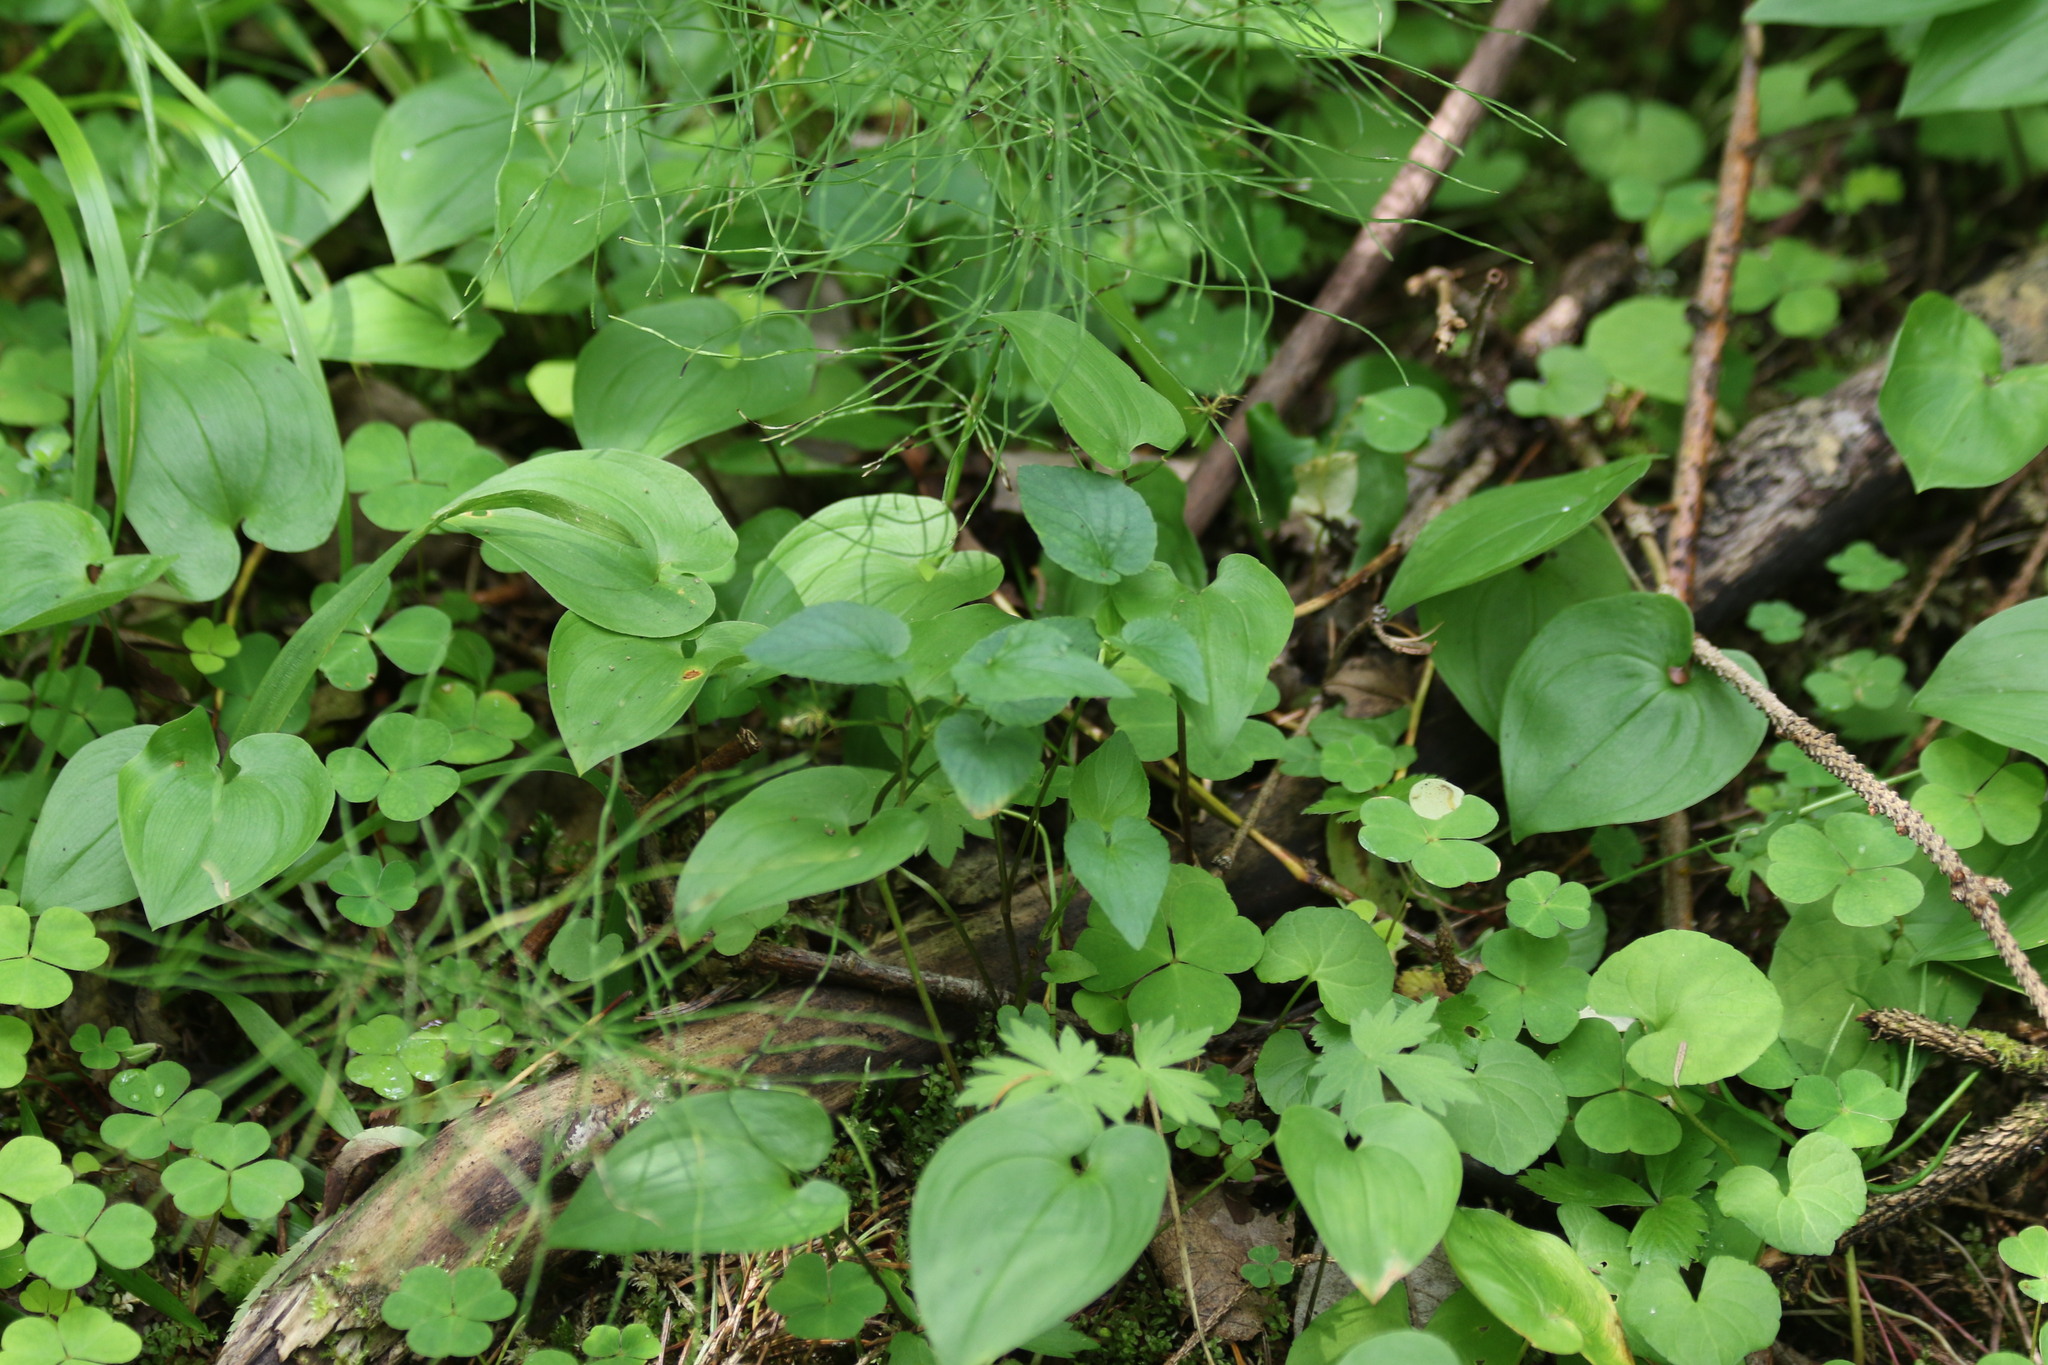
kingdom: Plantae
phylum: Tracheophyta
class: Liliopsida
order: Asparagales
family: Asparagaceae
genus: Maianthemum
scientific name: Maianthemum bifolium
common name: May lily
